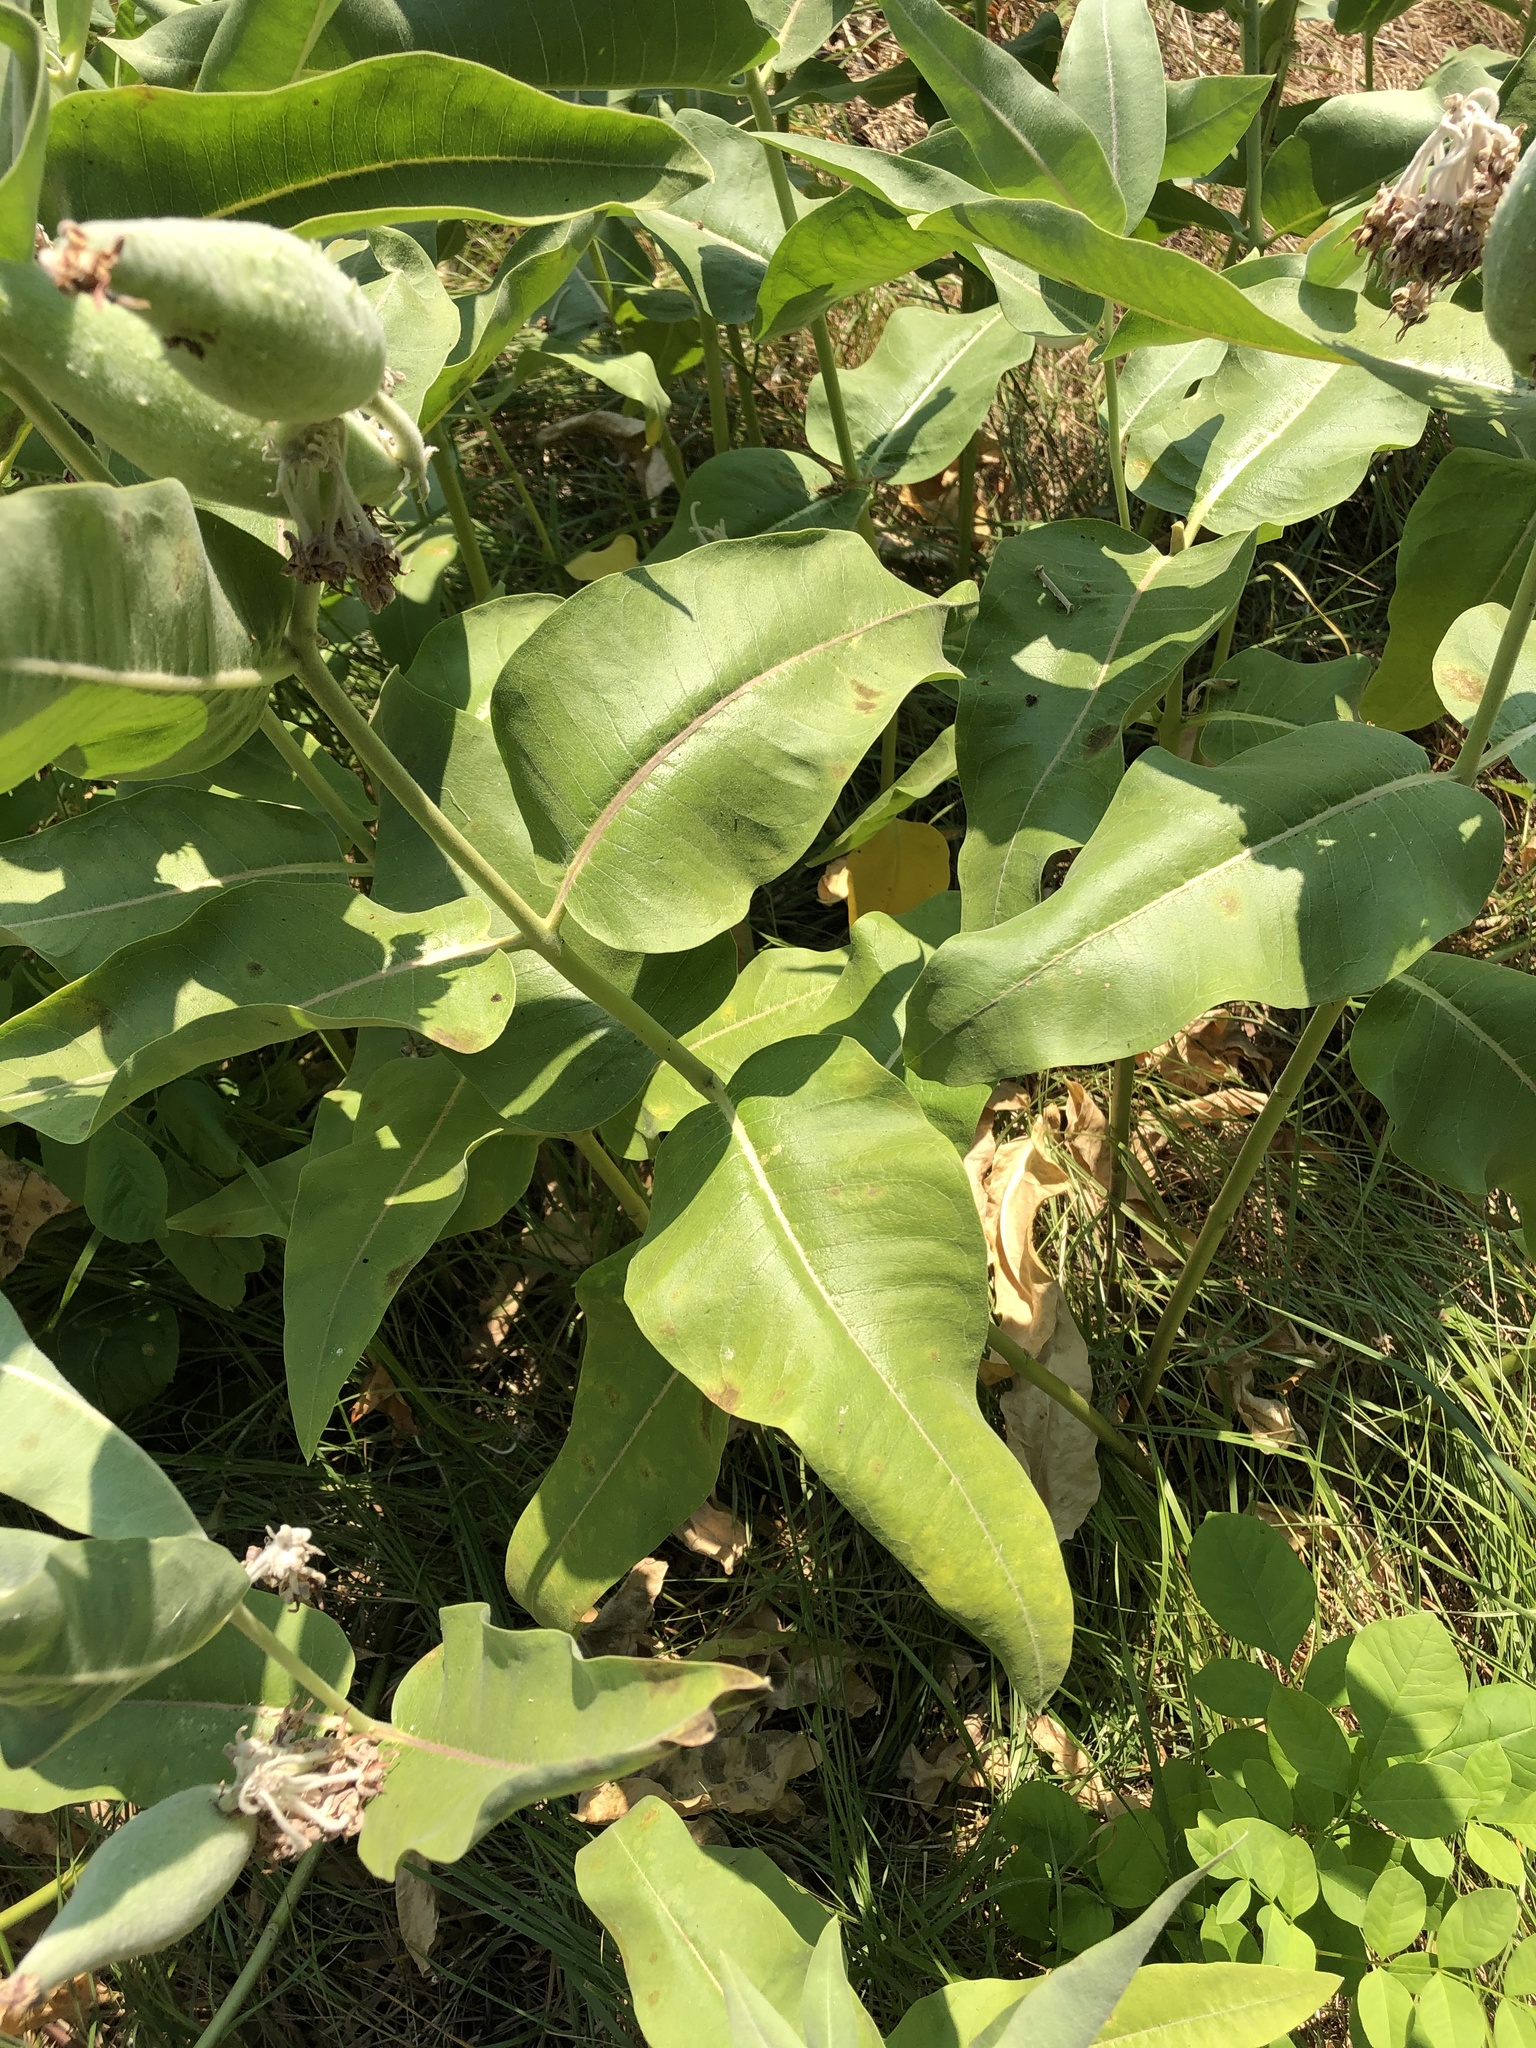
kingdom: Plantae
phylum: Tracheophyta
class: Magnoliopsida
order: Gentianales
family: Apocynaceae
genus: Asclepias
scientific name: Asclepias speciosa
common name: Showy milkweed
